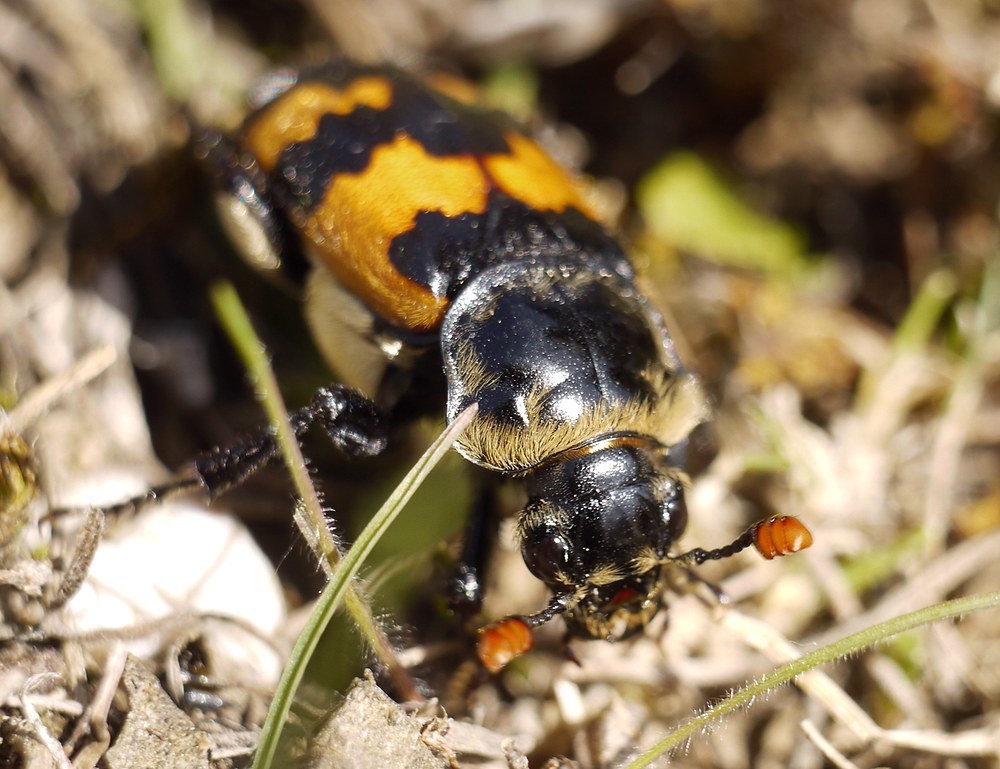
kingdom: Animalia
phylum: Arthropoda
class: Insecta
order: Coleoptera
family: Staphylinidae
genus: Nicrophorus
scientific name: Nicrophorus vespillo
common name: Common burying beetle
